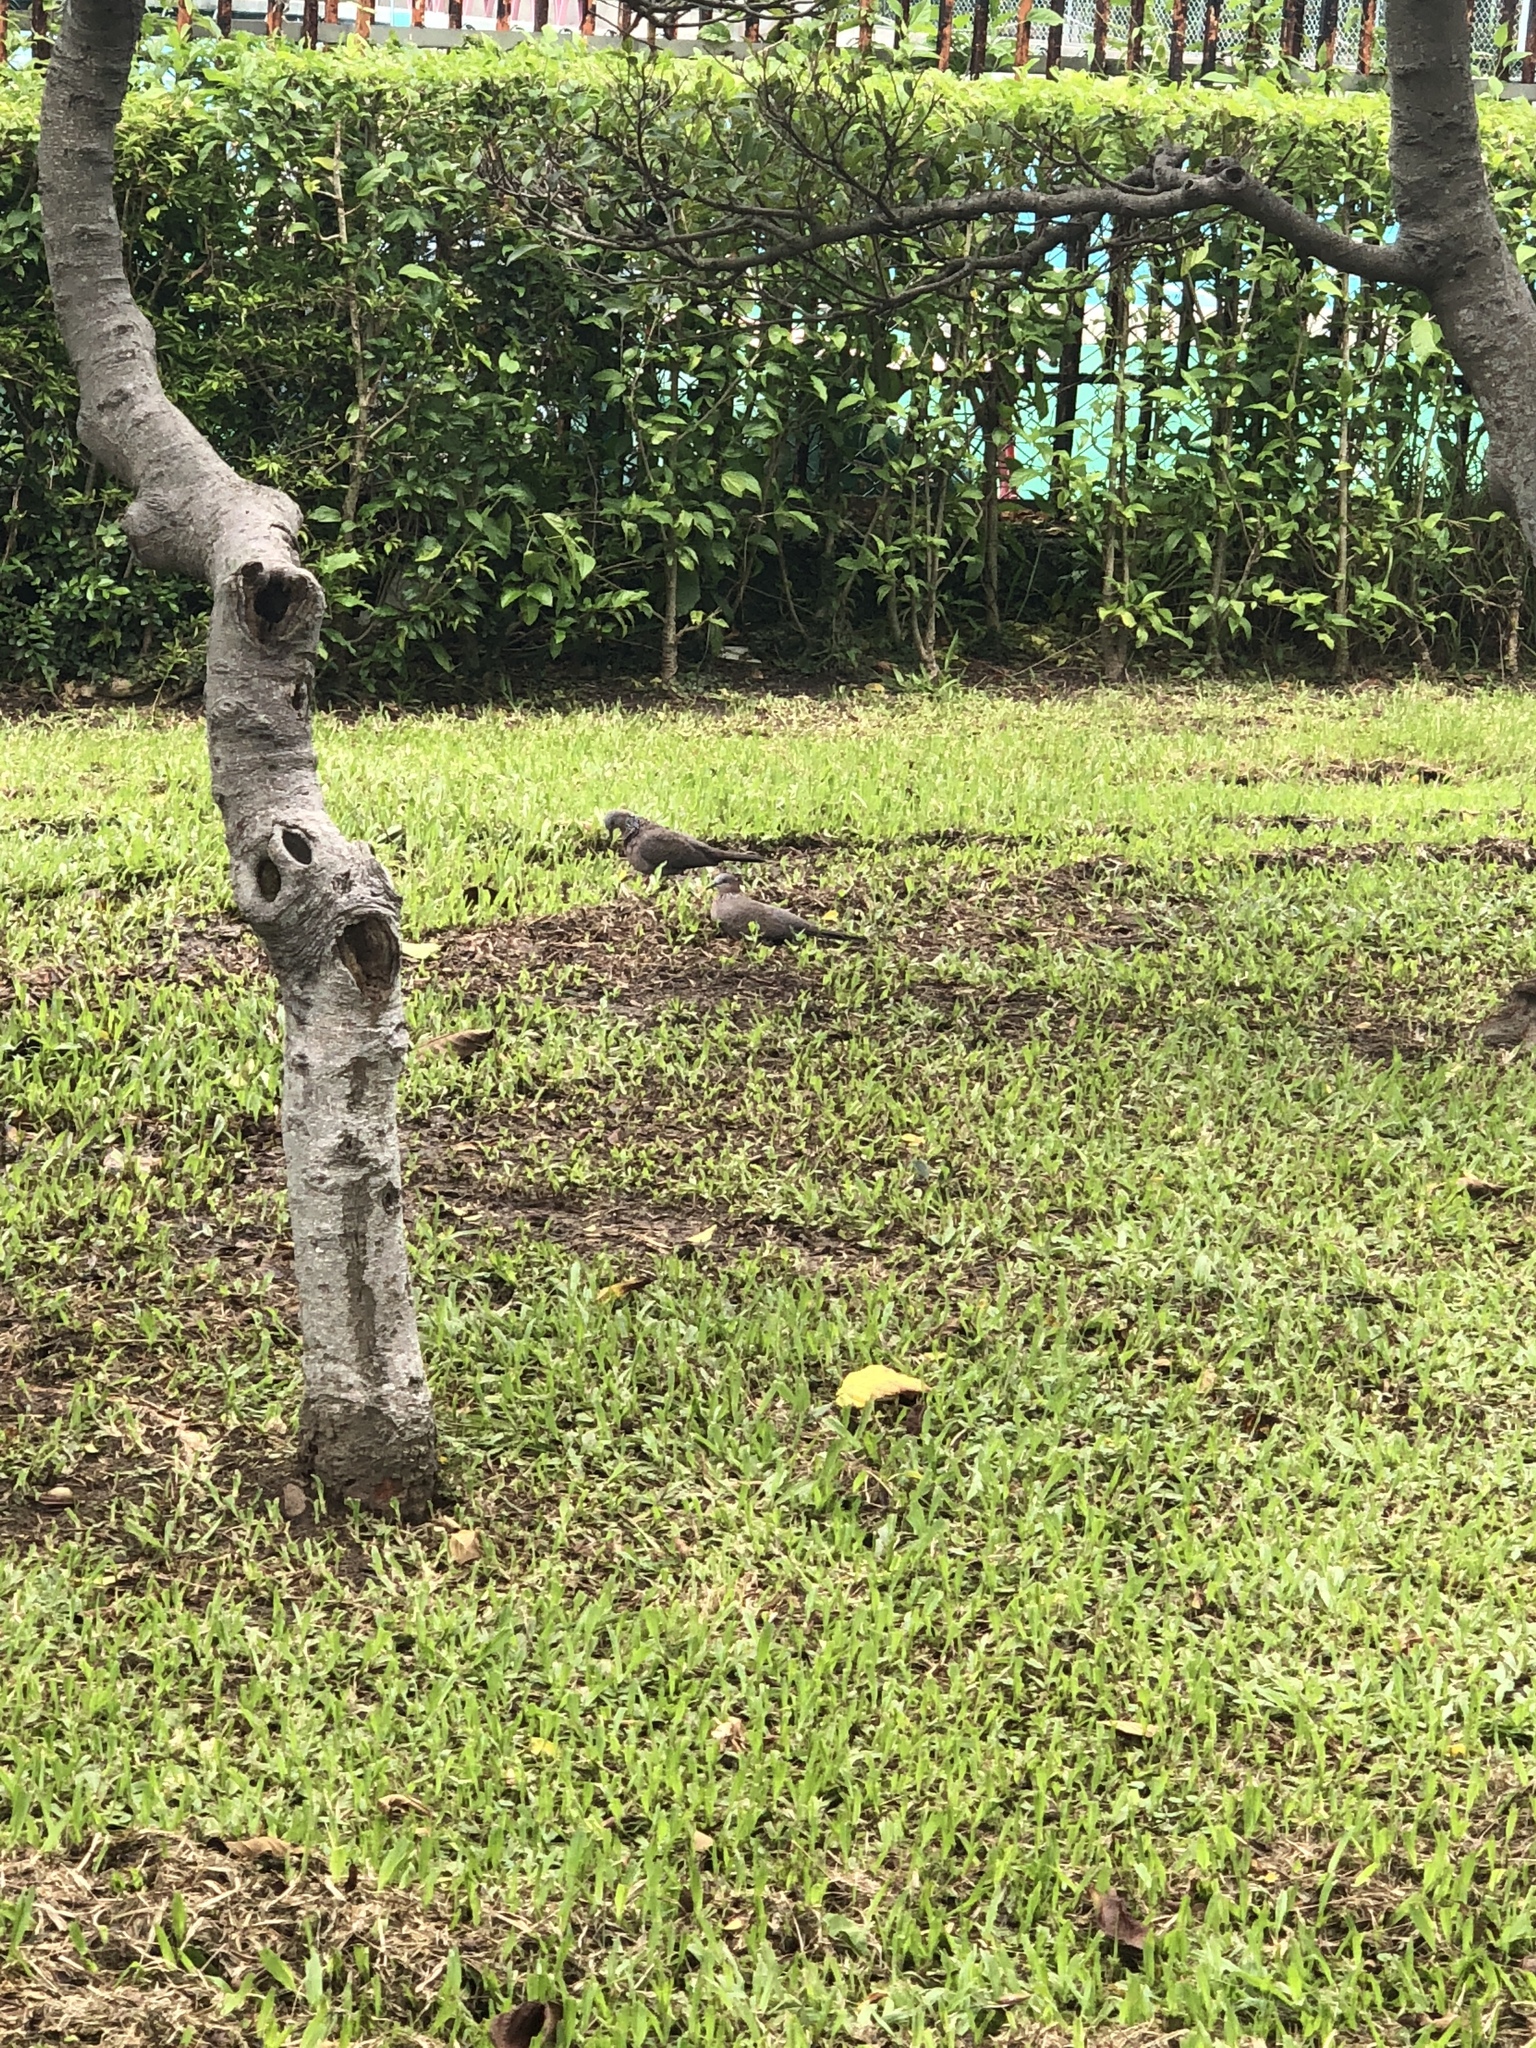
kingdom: Animalia
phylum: Chordata
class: Aves
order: Columbiformes
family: Columbidae
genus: Spilopelia
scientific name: Spilopelia chinensis
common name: Spotted dove
